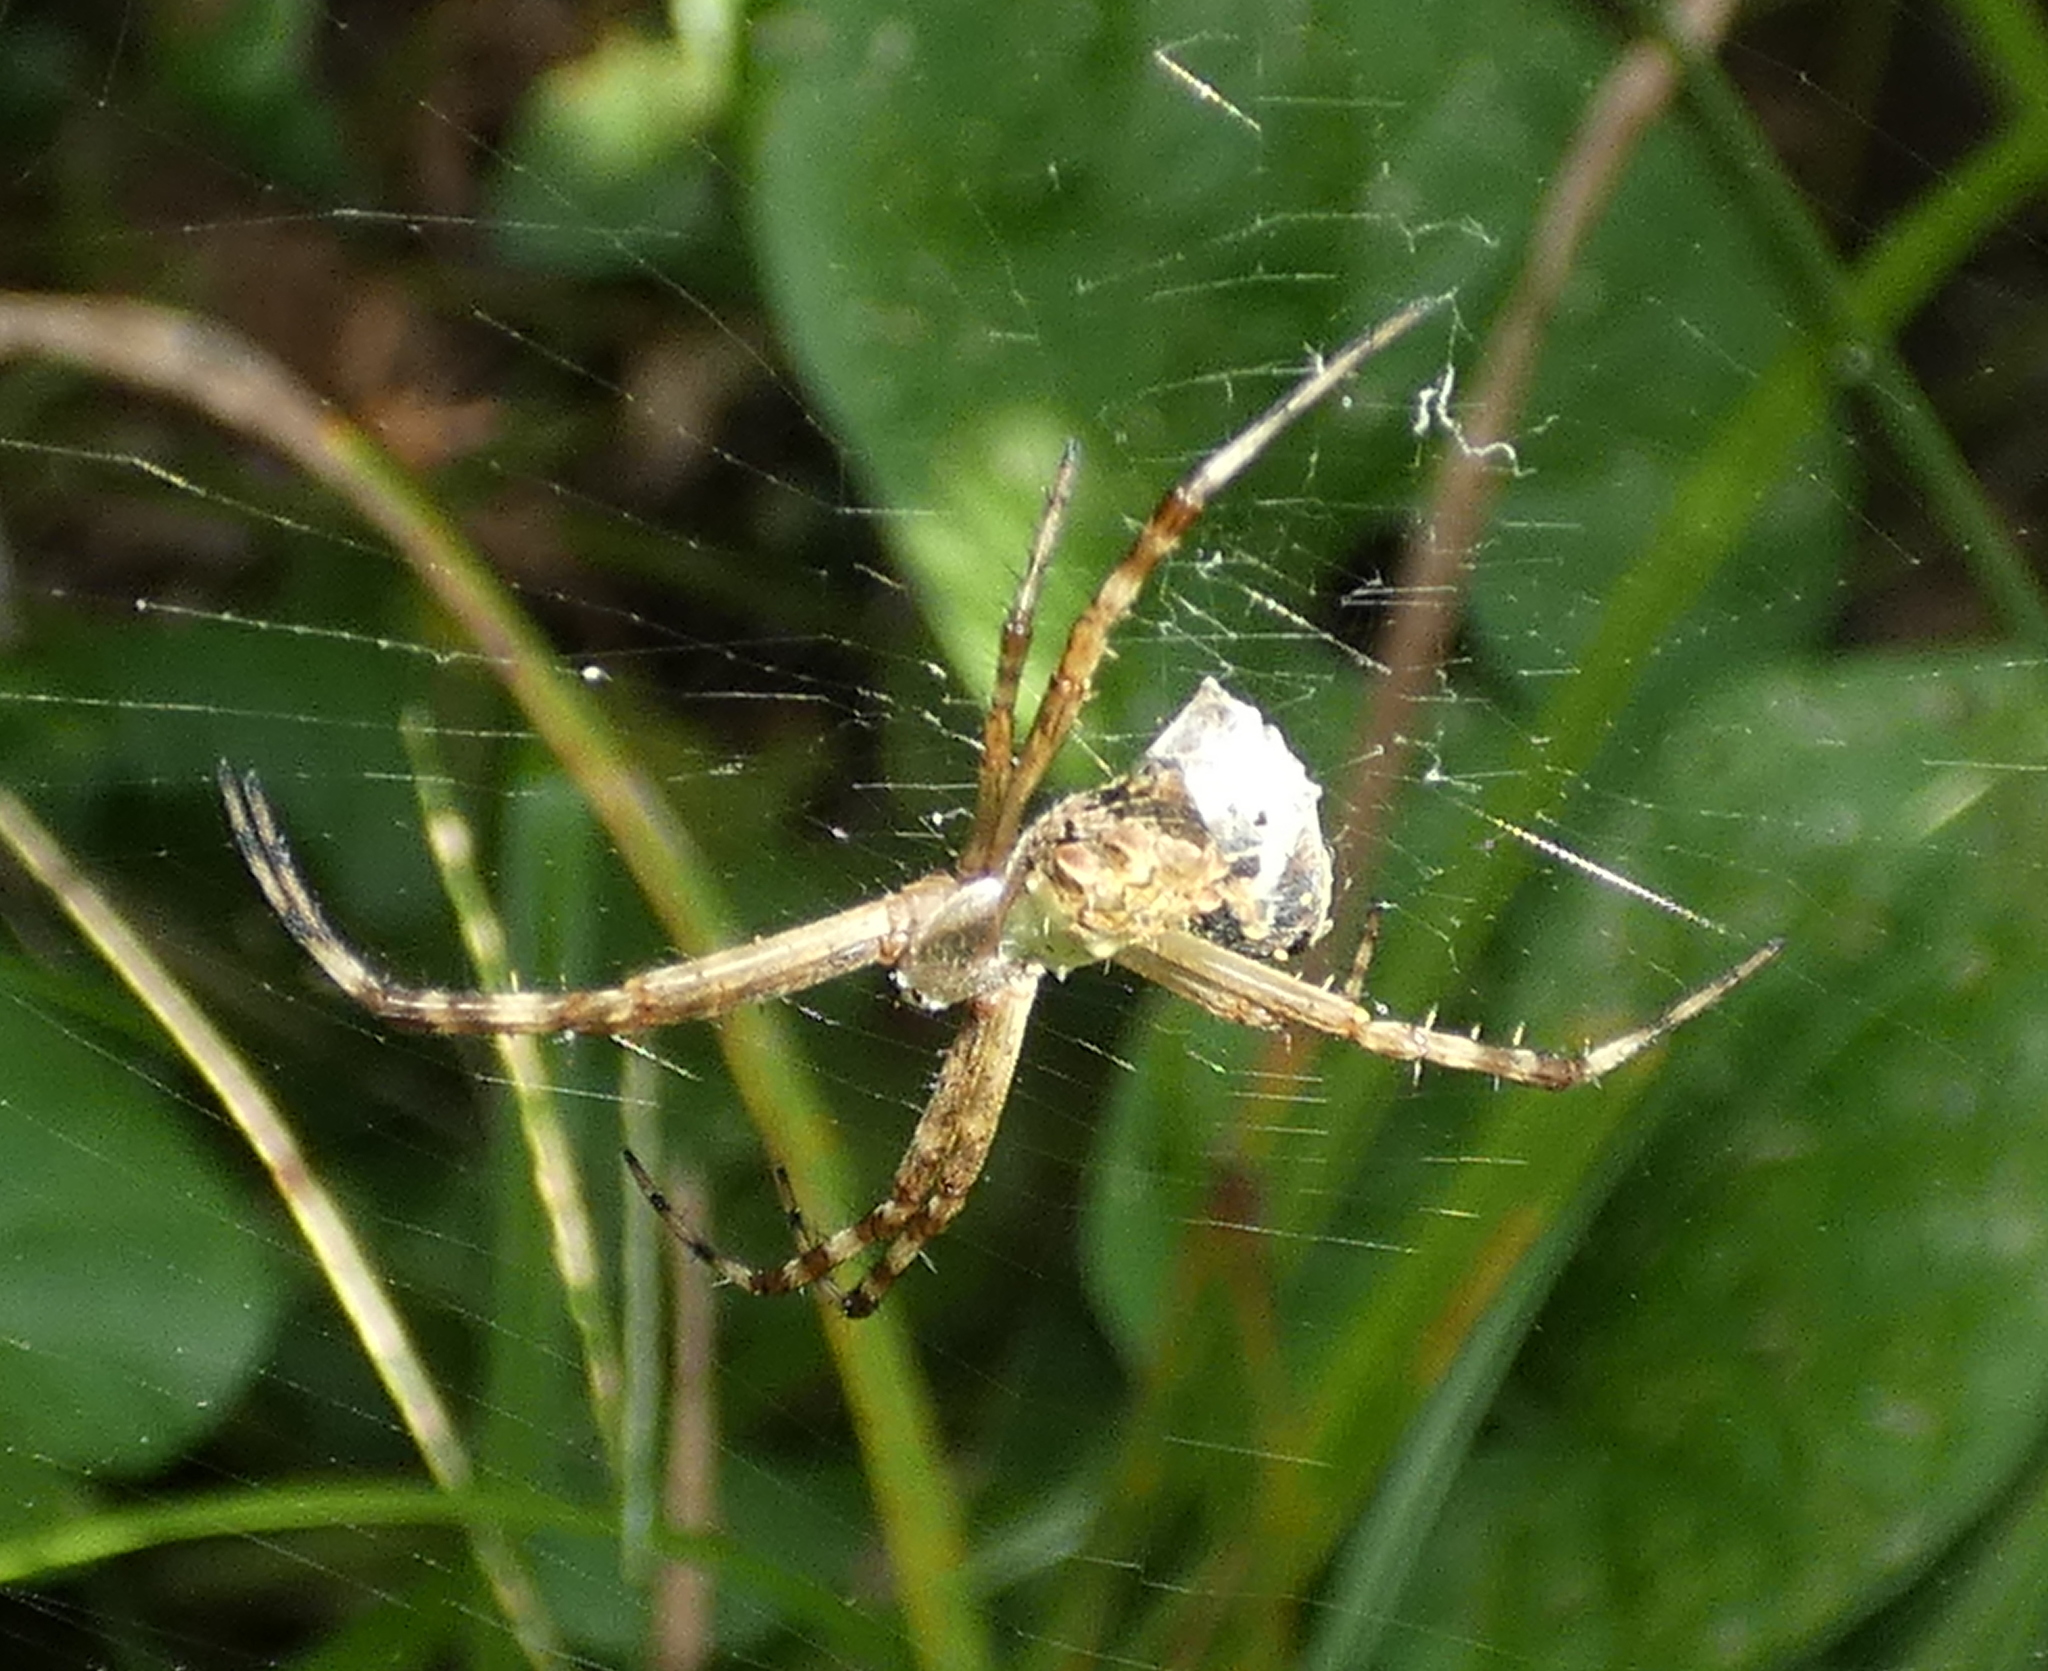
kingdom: Animalia
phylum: Arthropoda
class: Arachnida
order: Araneae
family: Araneidae
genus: Argiope
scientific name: Argiope argentata
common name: Orb weavers
